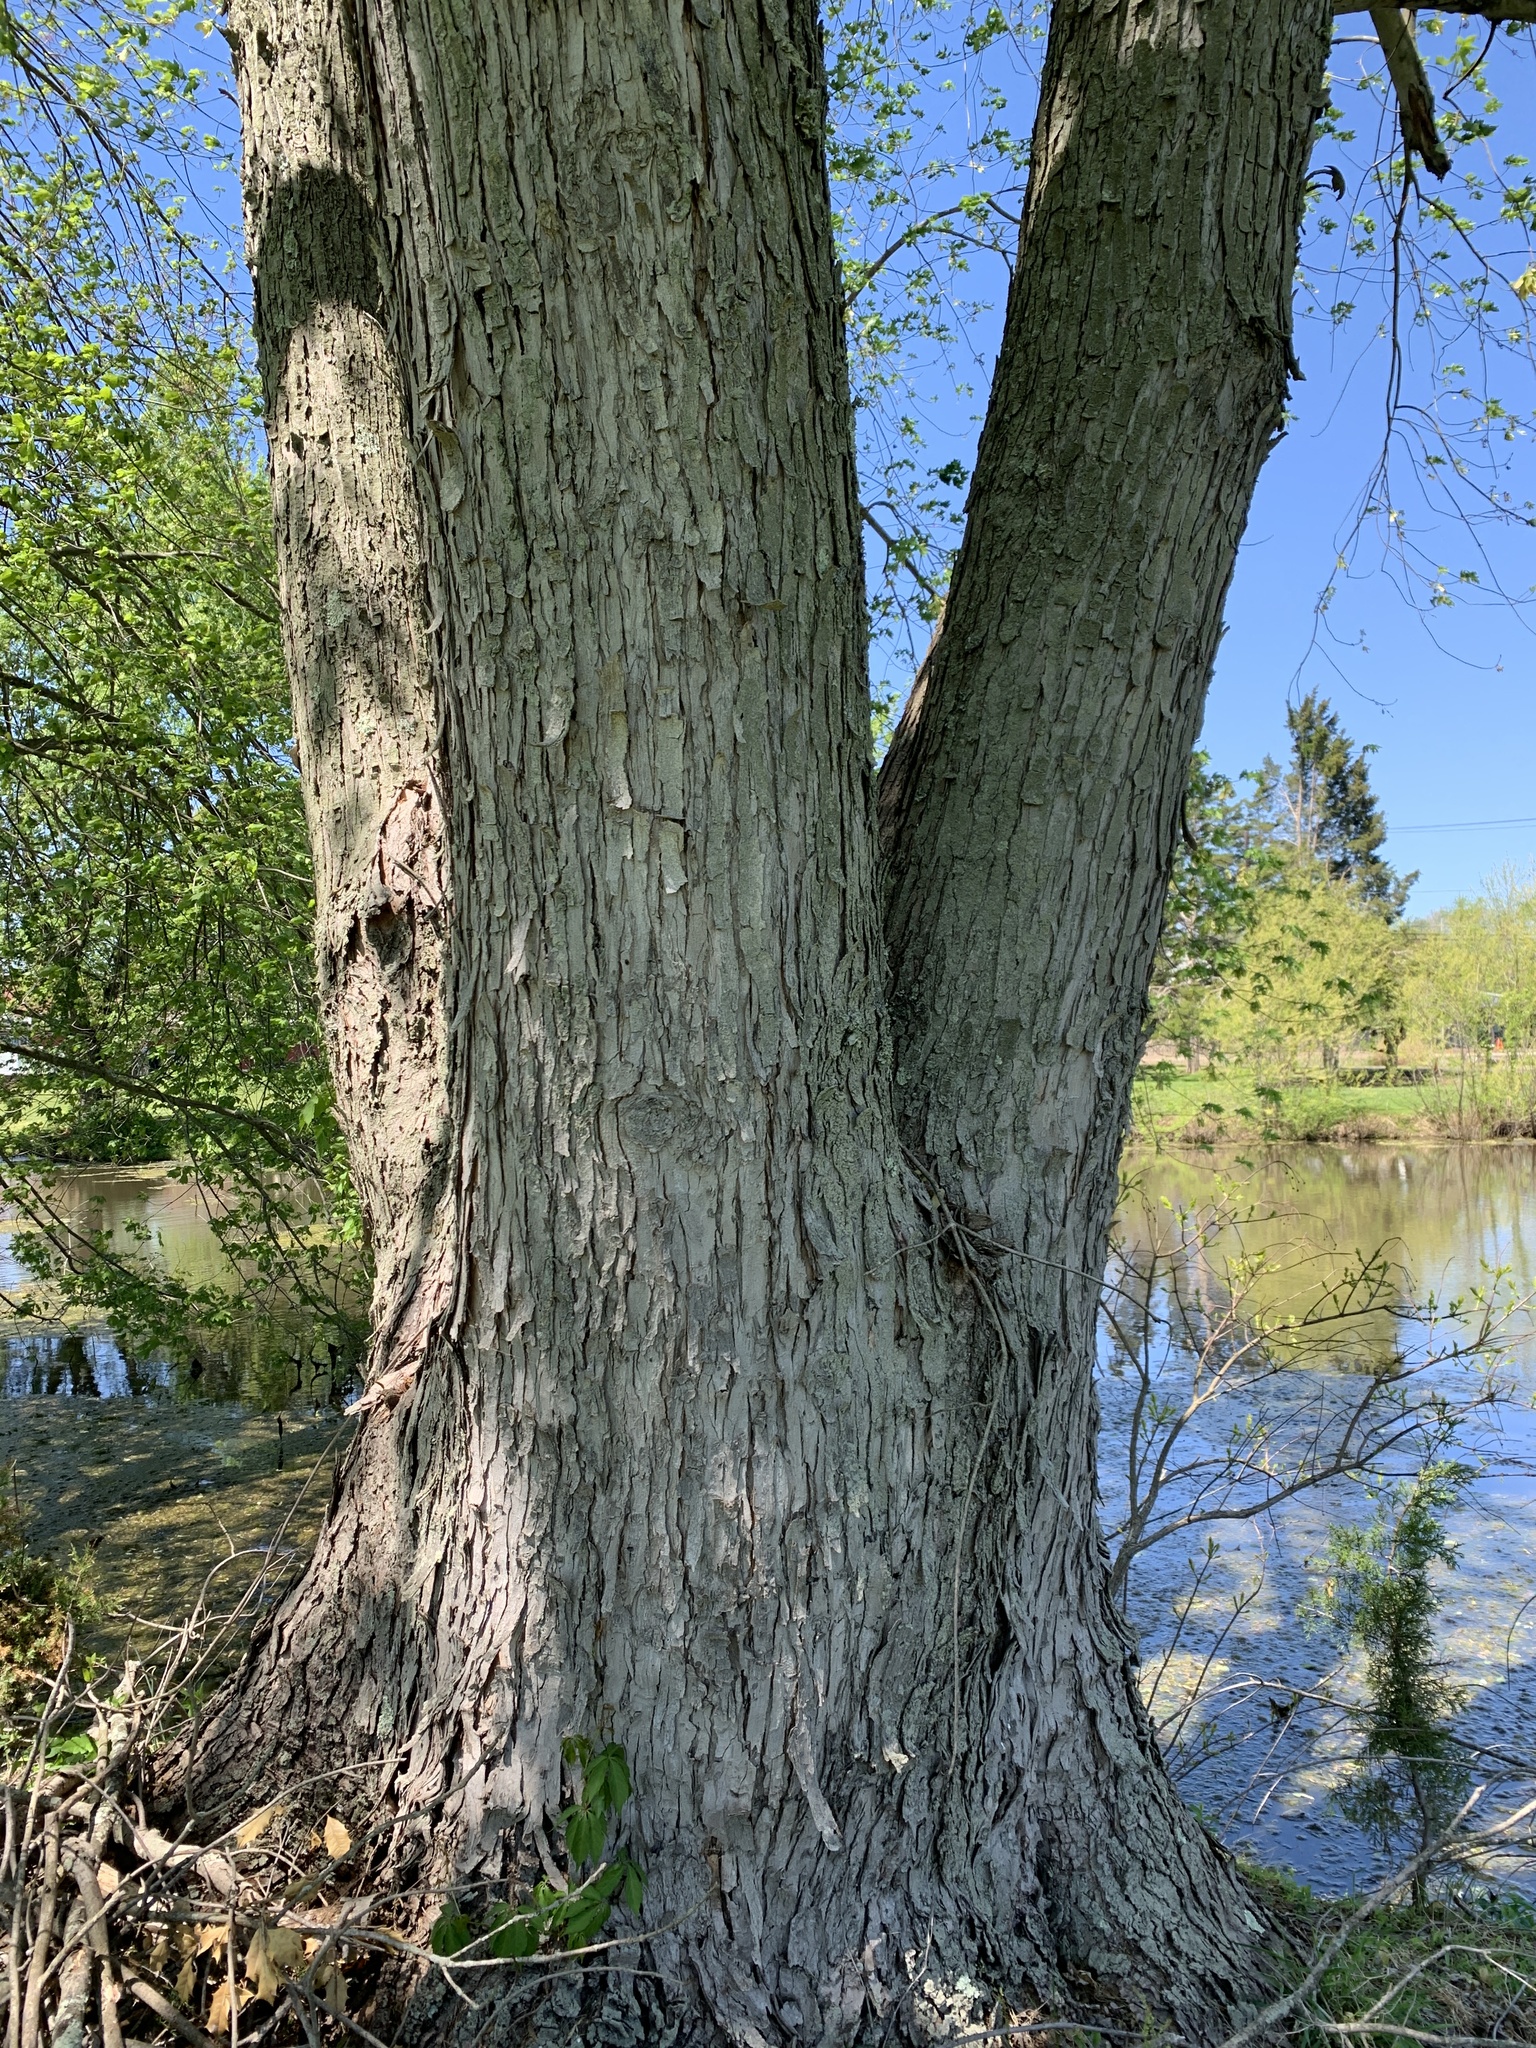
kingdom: Plantae
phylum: Tracheophyta
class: Magnoliopsida
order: Sapindales
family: Sapindaceae
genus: Acer
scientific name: Acer saccharinum
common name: Silver maple
